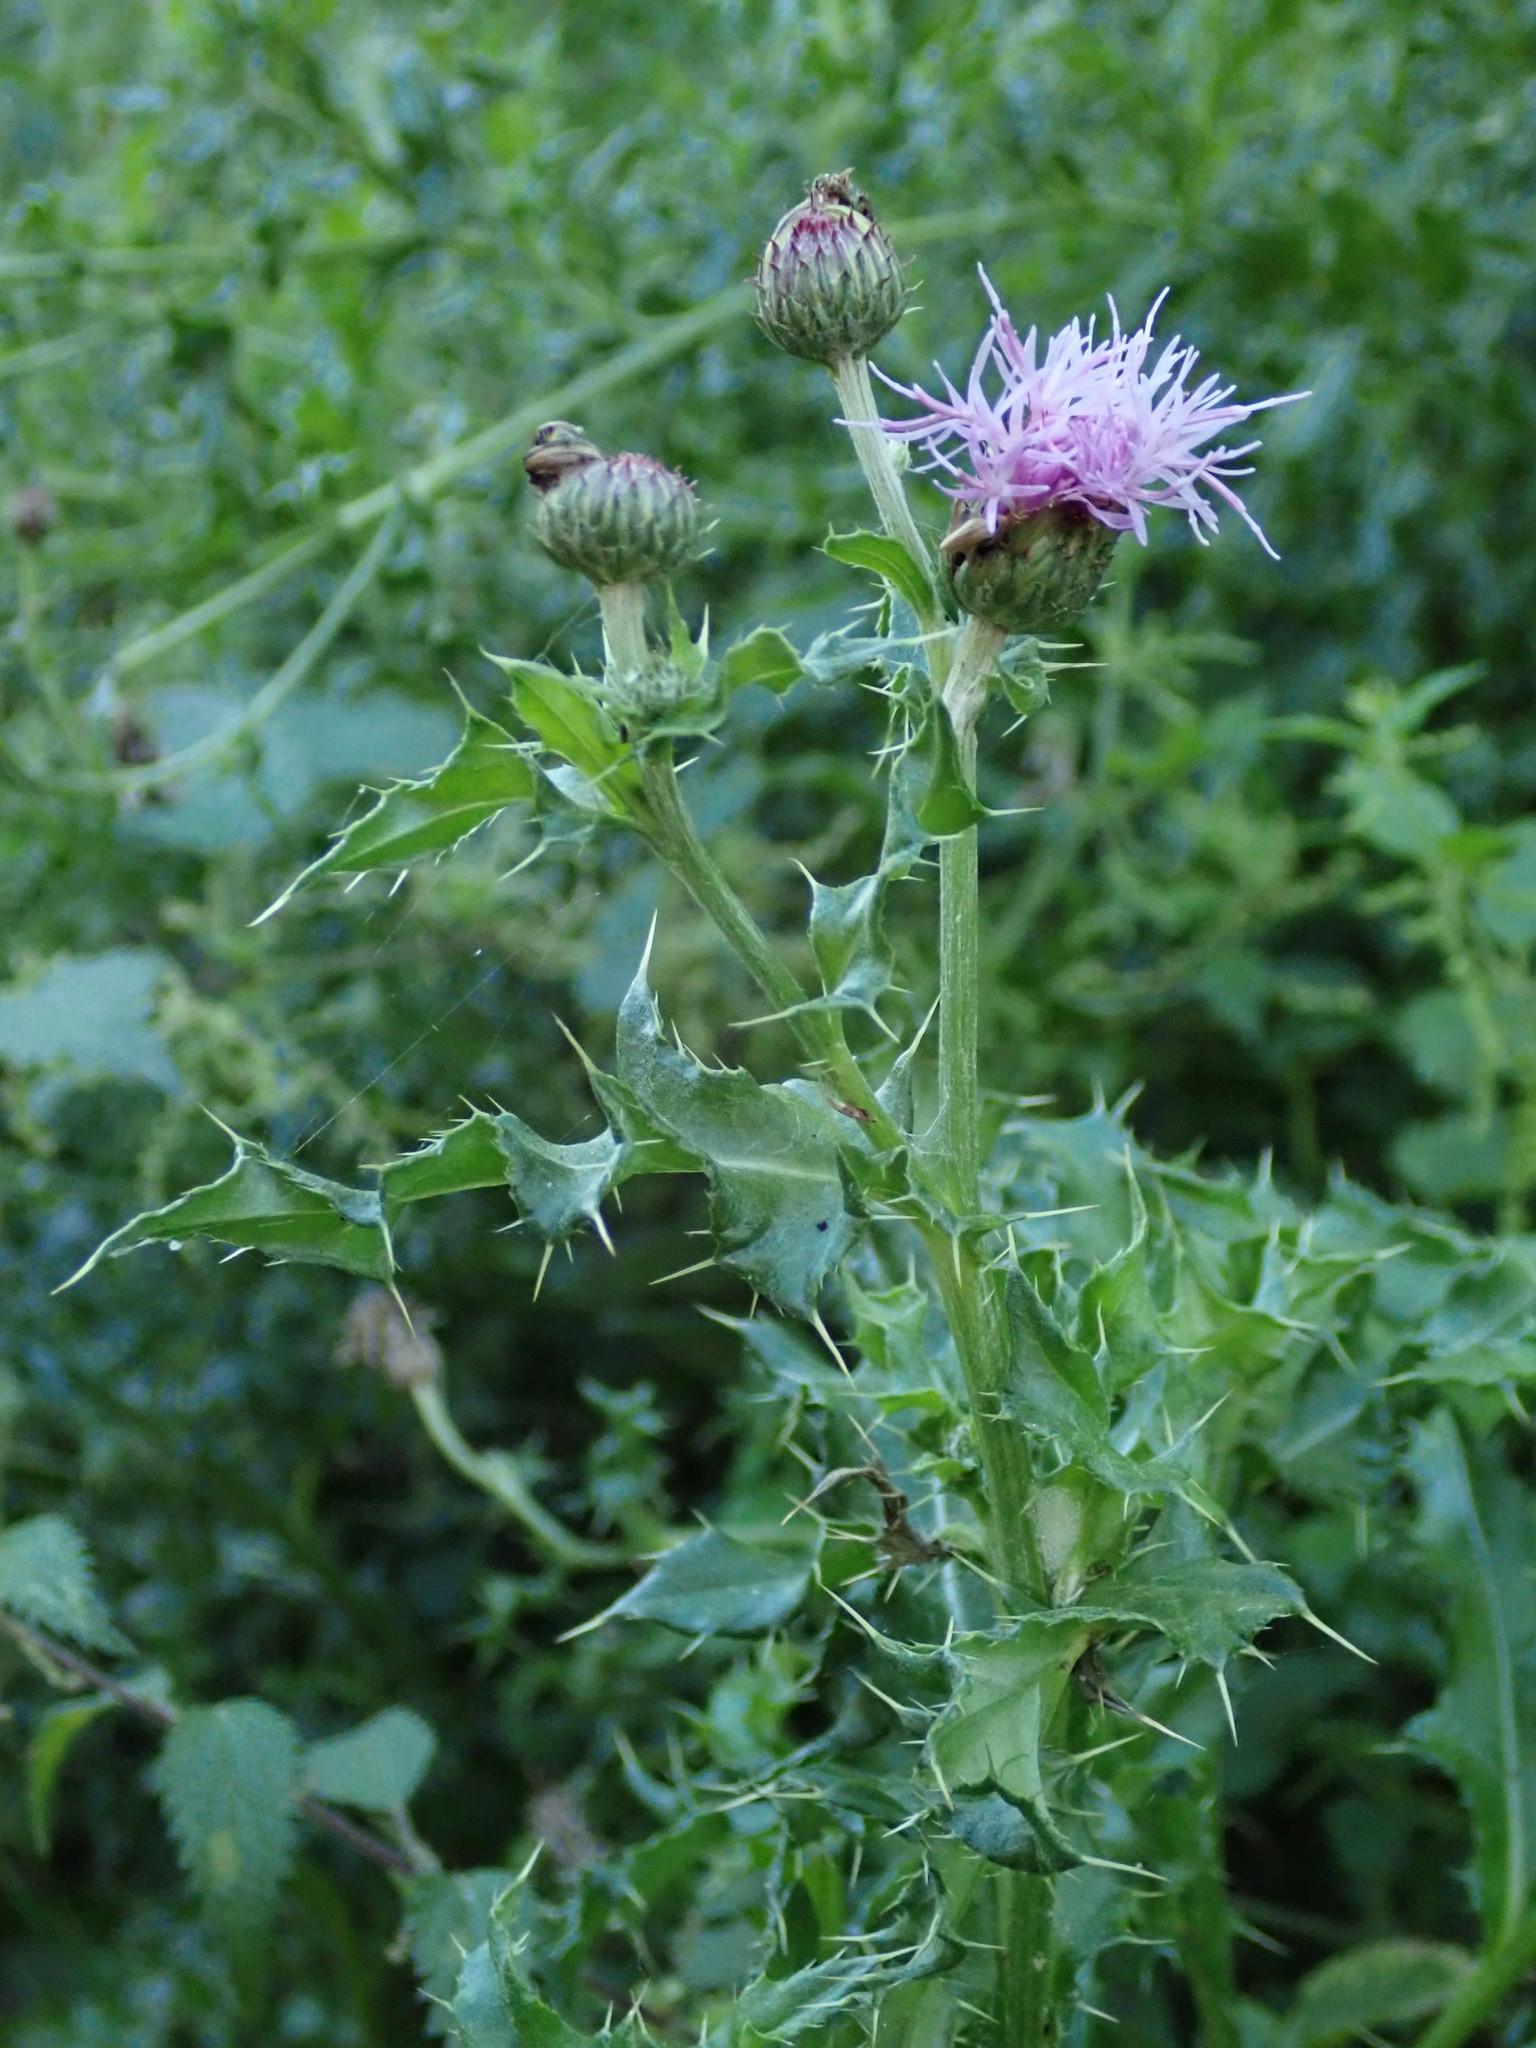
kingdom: Plantae
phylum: Tracheophyta
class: Magnoliopsida
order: Asterales
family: Asteraceae
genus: Cirsium
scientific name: Cirsium arvense
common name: Creeping thistle
